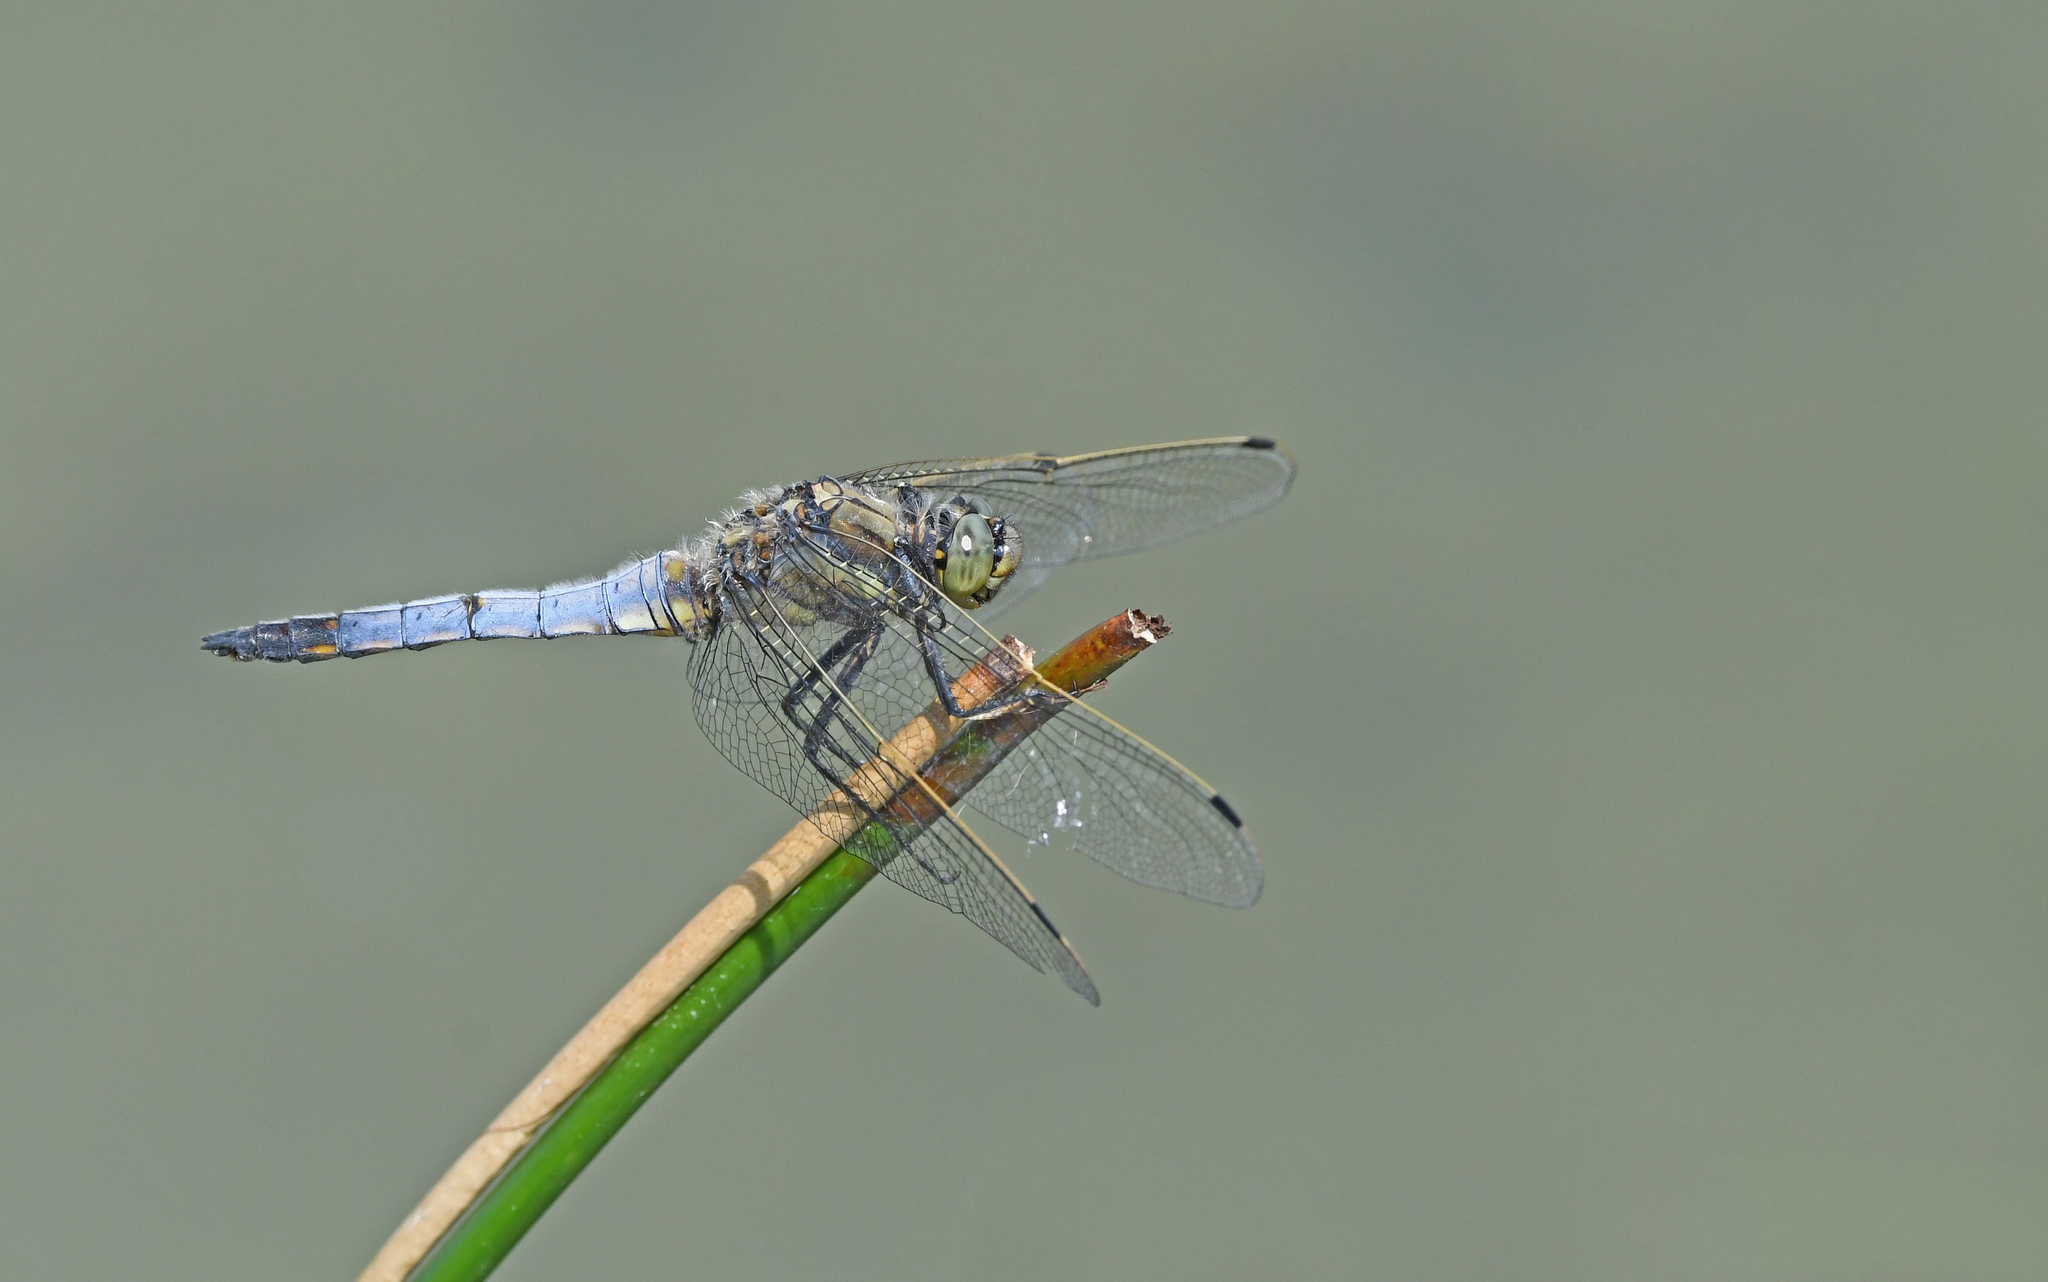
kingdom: Animalia
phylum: Arthropoda
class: Insecta
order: Odonata
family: Libellulidae
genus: Orthetrum
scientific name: Orthetrum cancellatum
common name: Black-tailed skimmer
